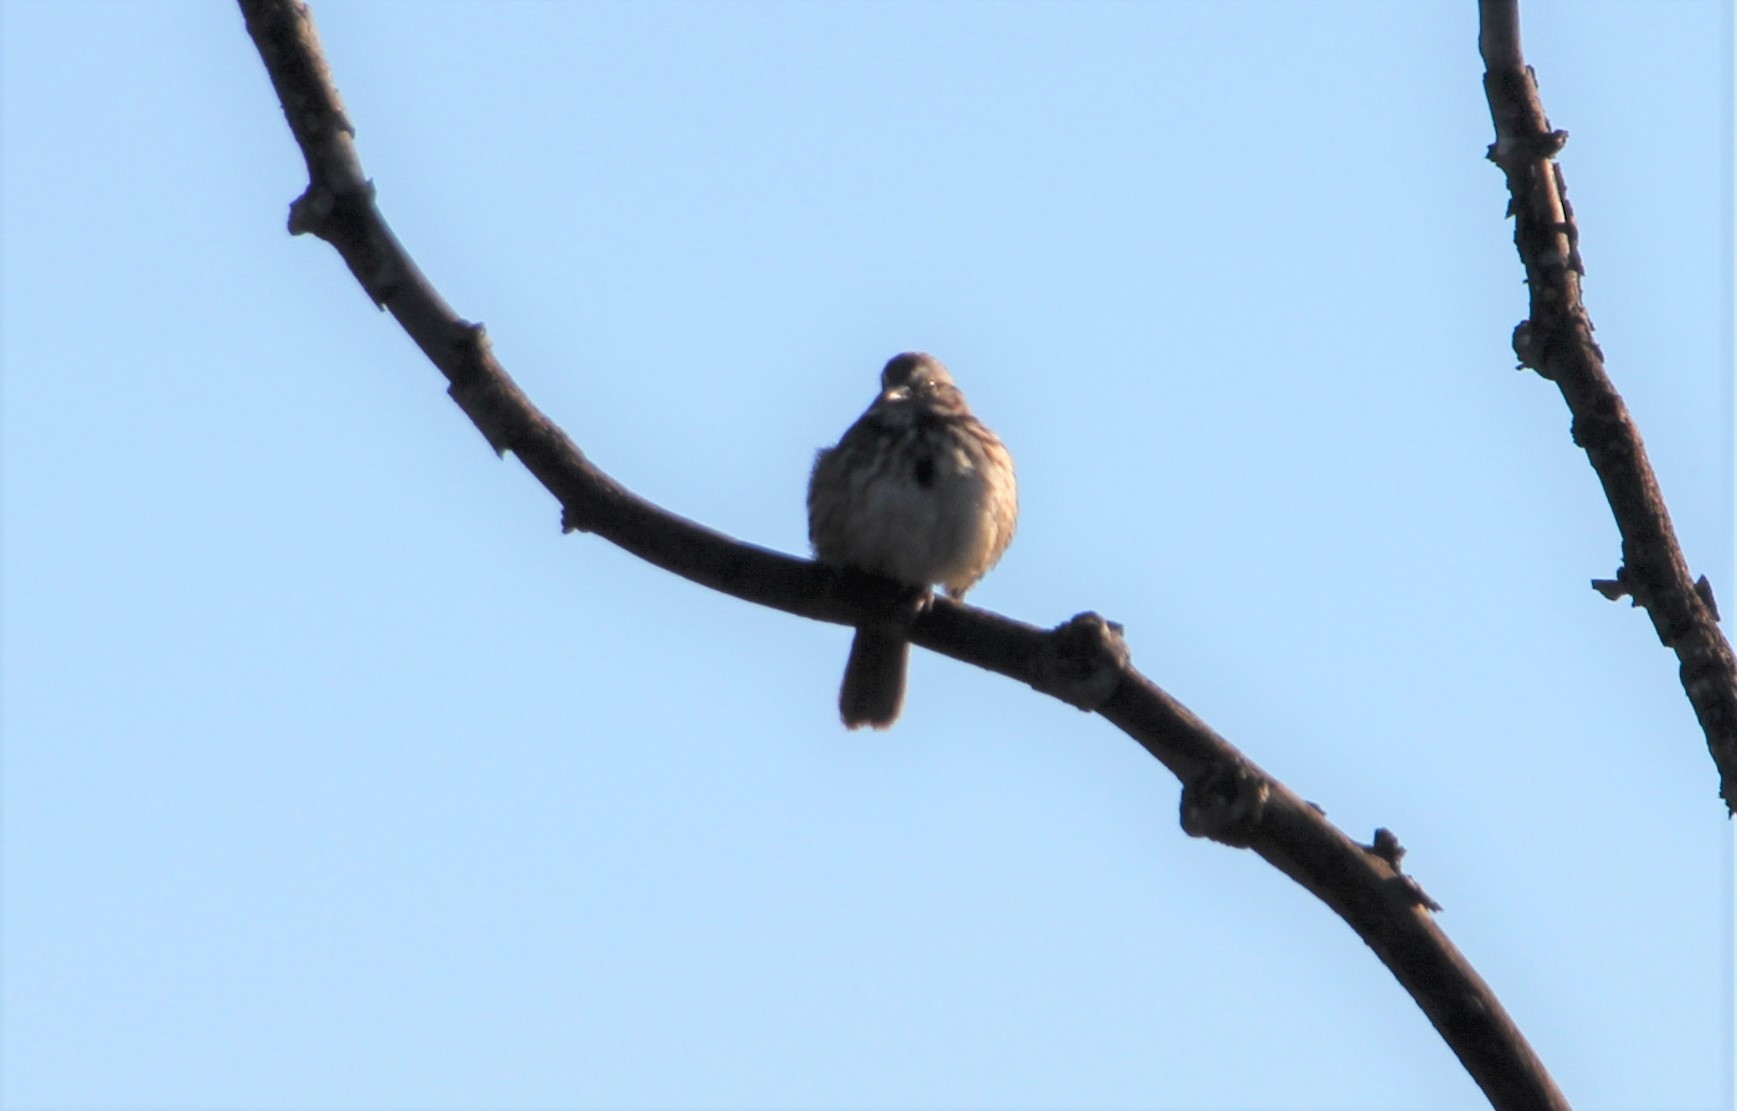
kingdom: Animalia
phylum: Chordata
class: Aves
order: Passeriformes
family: Passerellidae
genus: Melospiza
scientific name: Melospiza melodia
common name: Song sparrow
